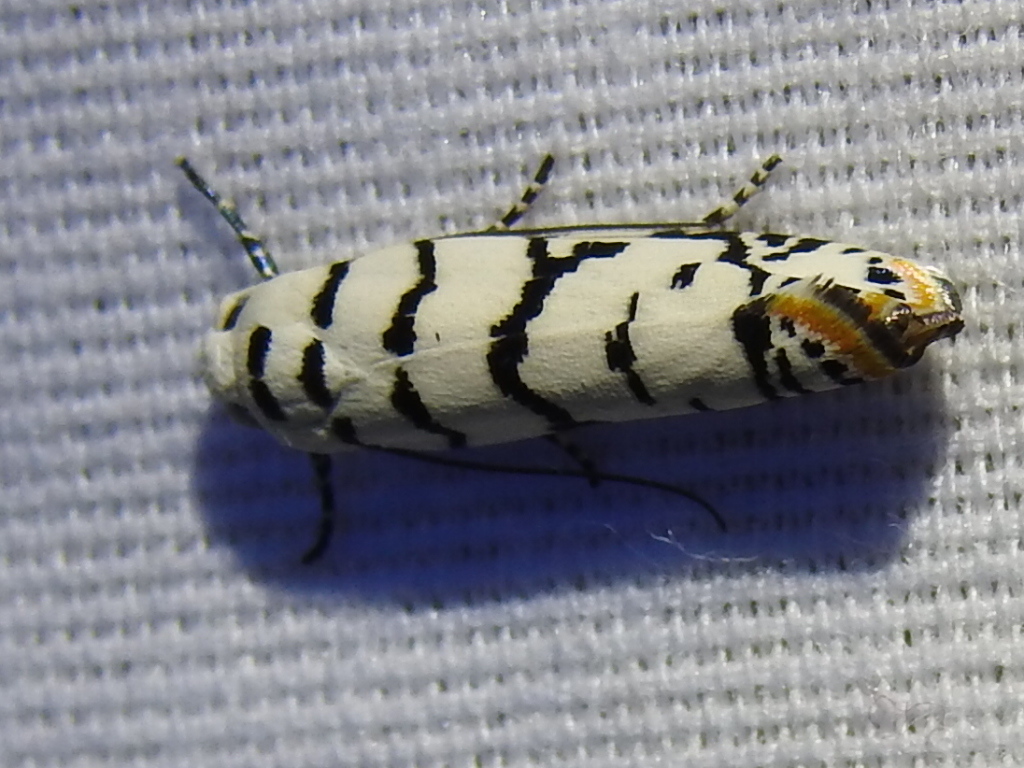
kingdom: Animalia
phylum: Arthropoda
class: Insecta
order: Lepidoptera
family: Ethmiidae
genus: Ethmia
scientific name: Ethmia delliella
